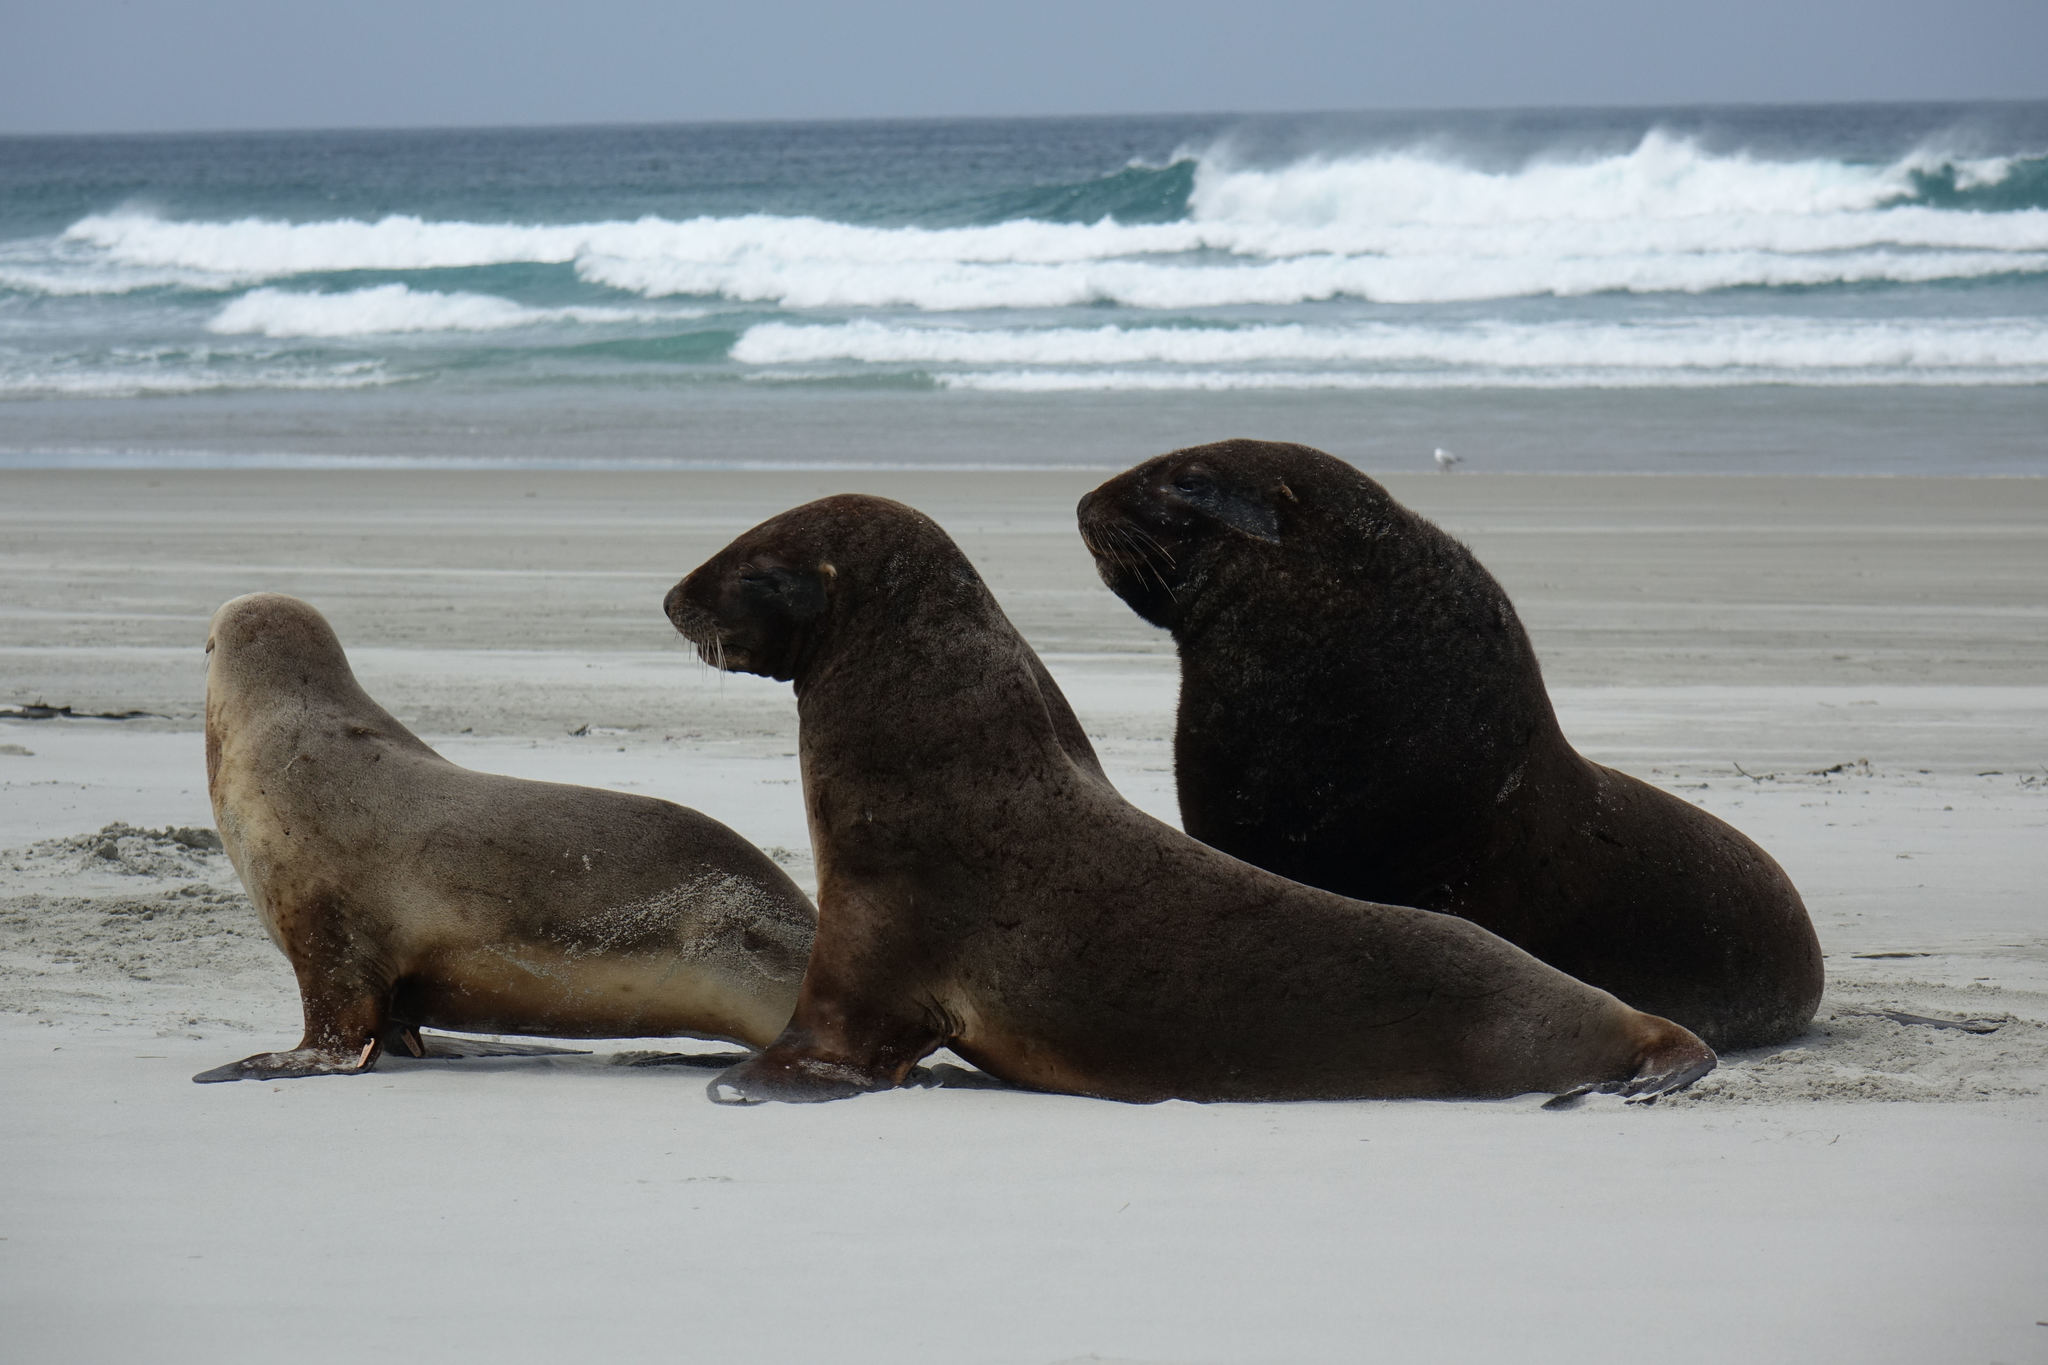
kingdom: Animalia
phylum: Chordata
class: Mammalia
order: Carnivora
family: Otariidae
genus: Phocarctos
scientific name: Phocarctos hookeri
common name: New zealand sea lion
